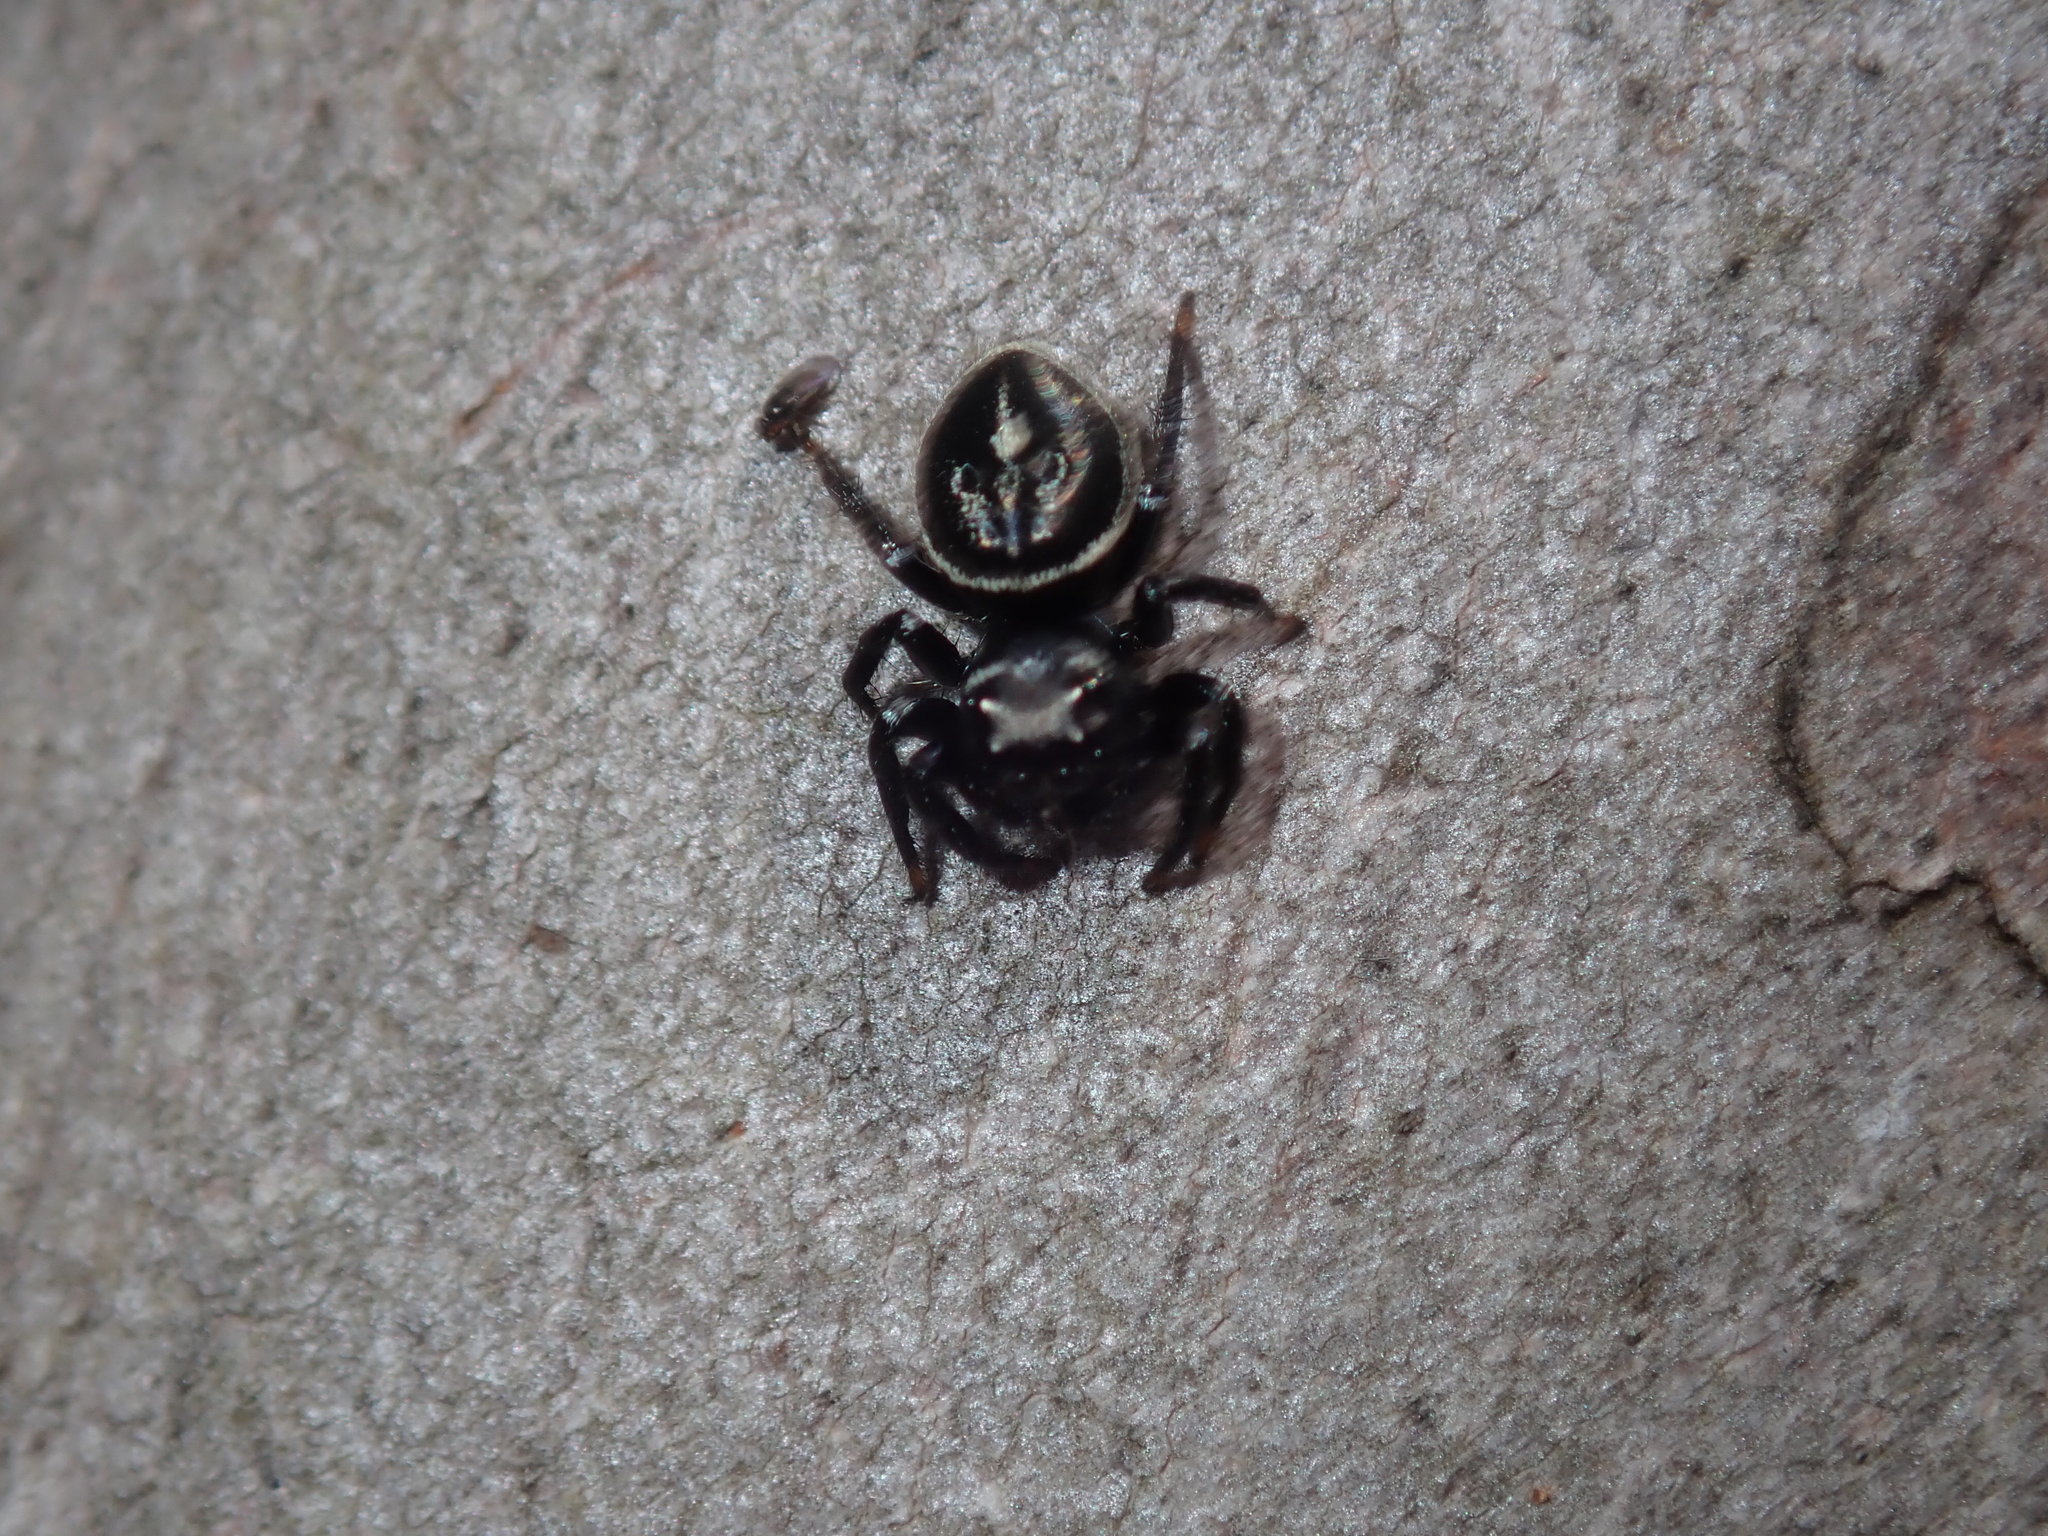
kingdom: Animalia
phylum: Arthropoda
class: Arachnida
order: Araneae
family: Salticidae
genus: Zenodorus
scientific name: Zenodorus orbiculatus
